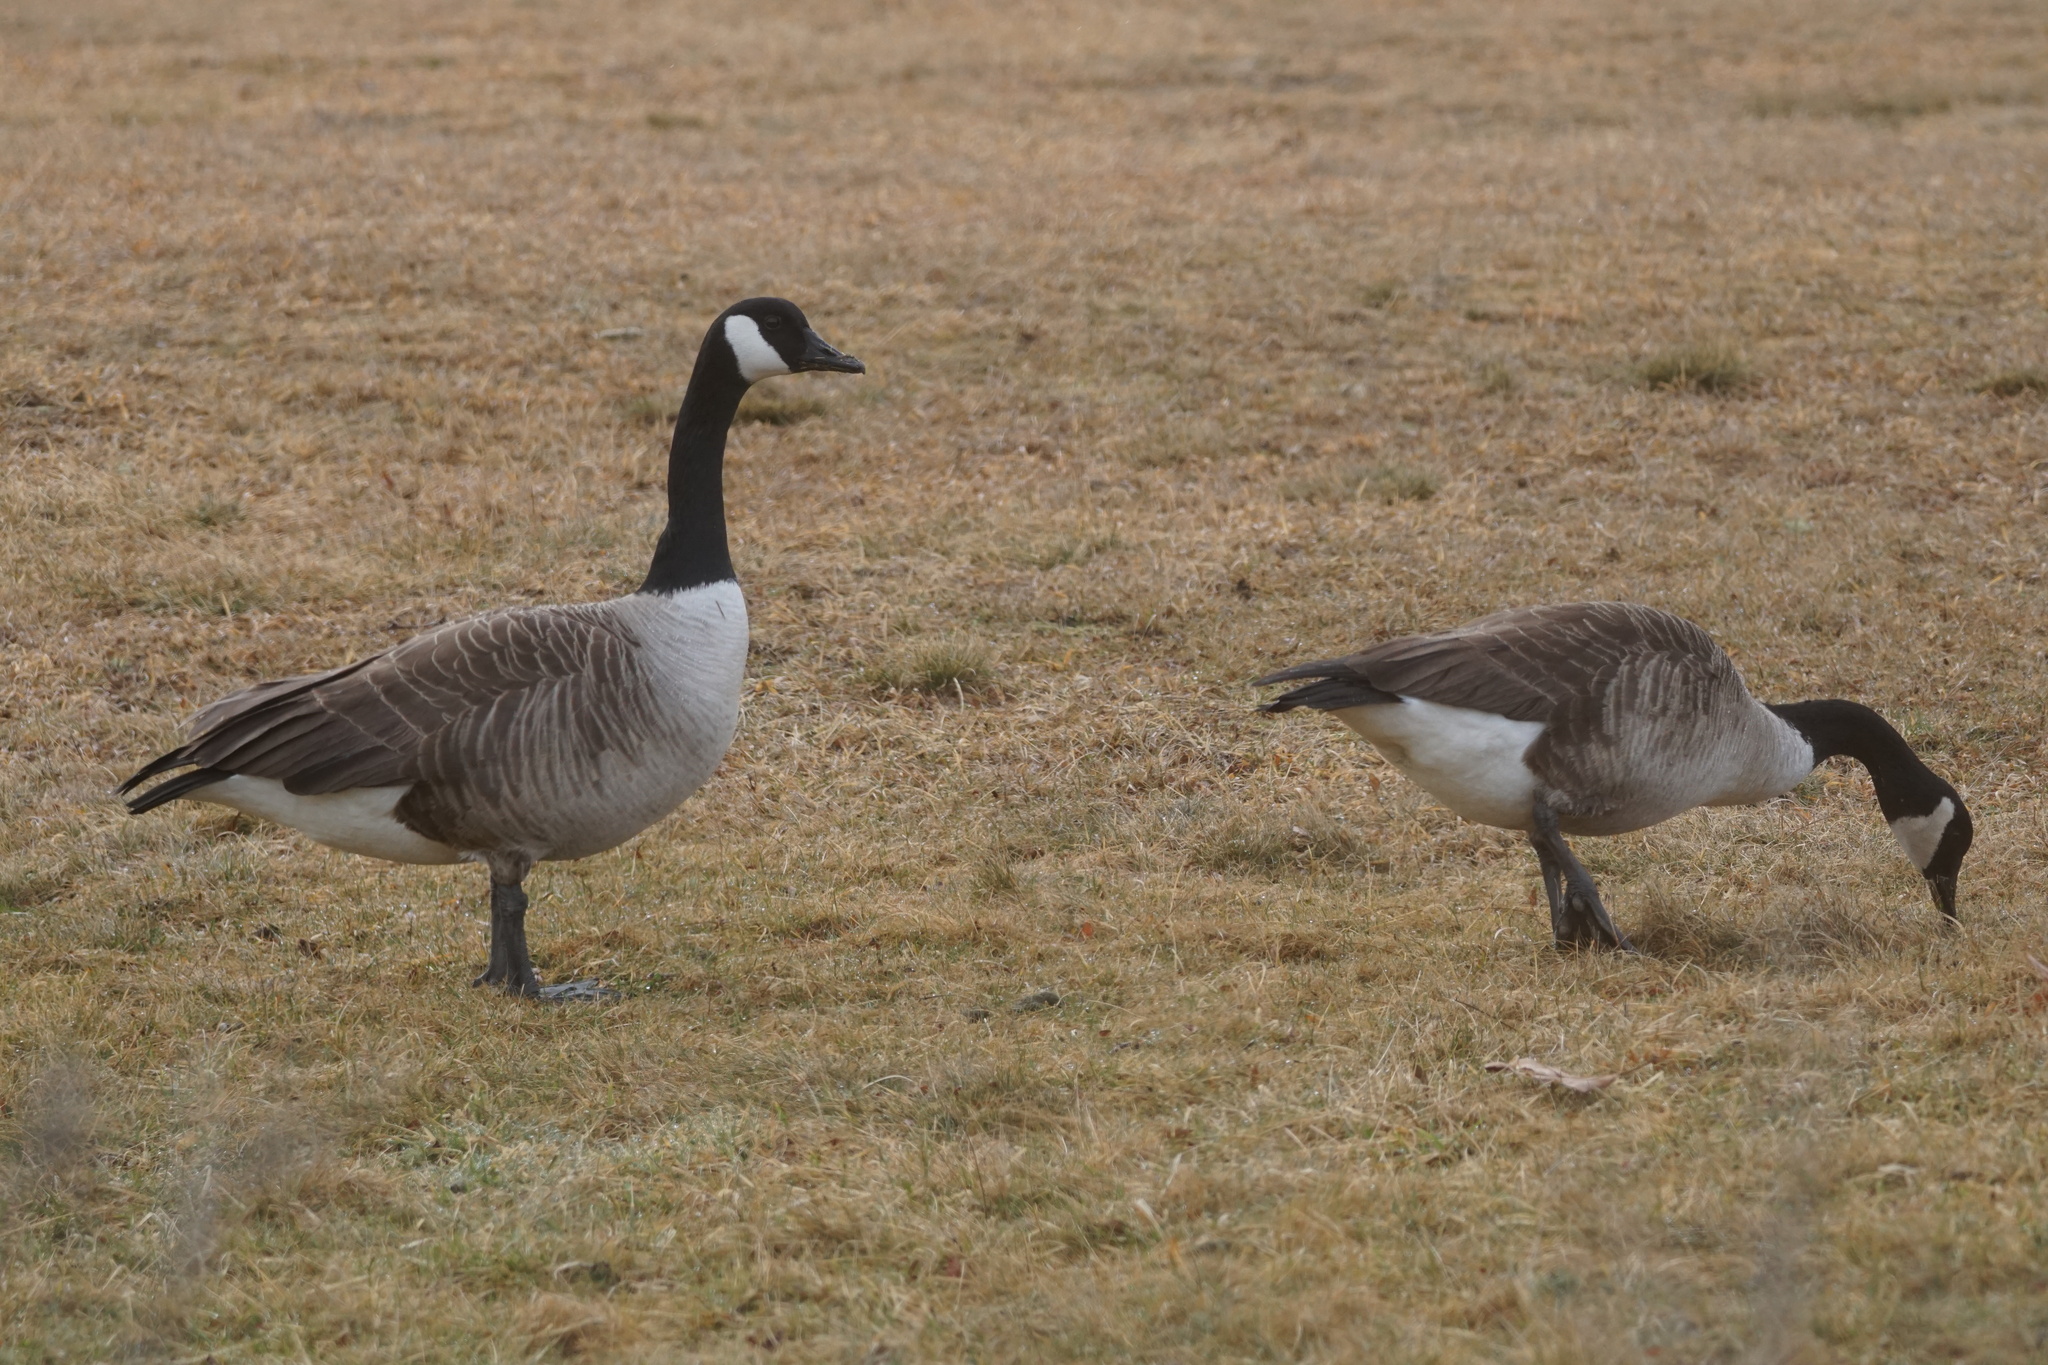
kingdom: Animalia
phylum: Chordata
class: Aves
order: Anseriformes
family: Anatidae
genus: Branta
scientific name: Branta canadensis
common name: Canada goose
